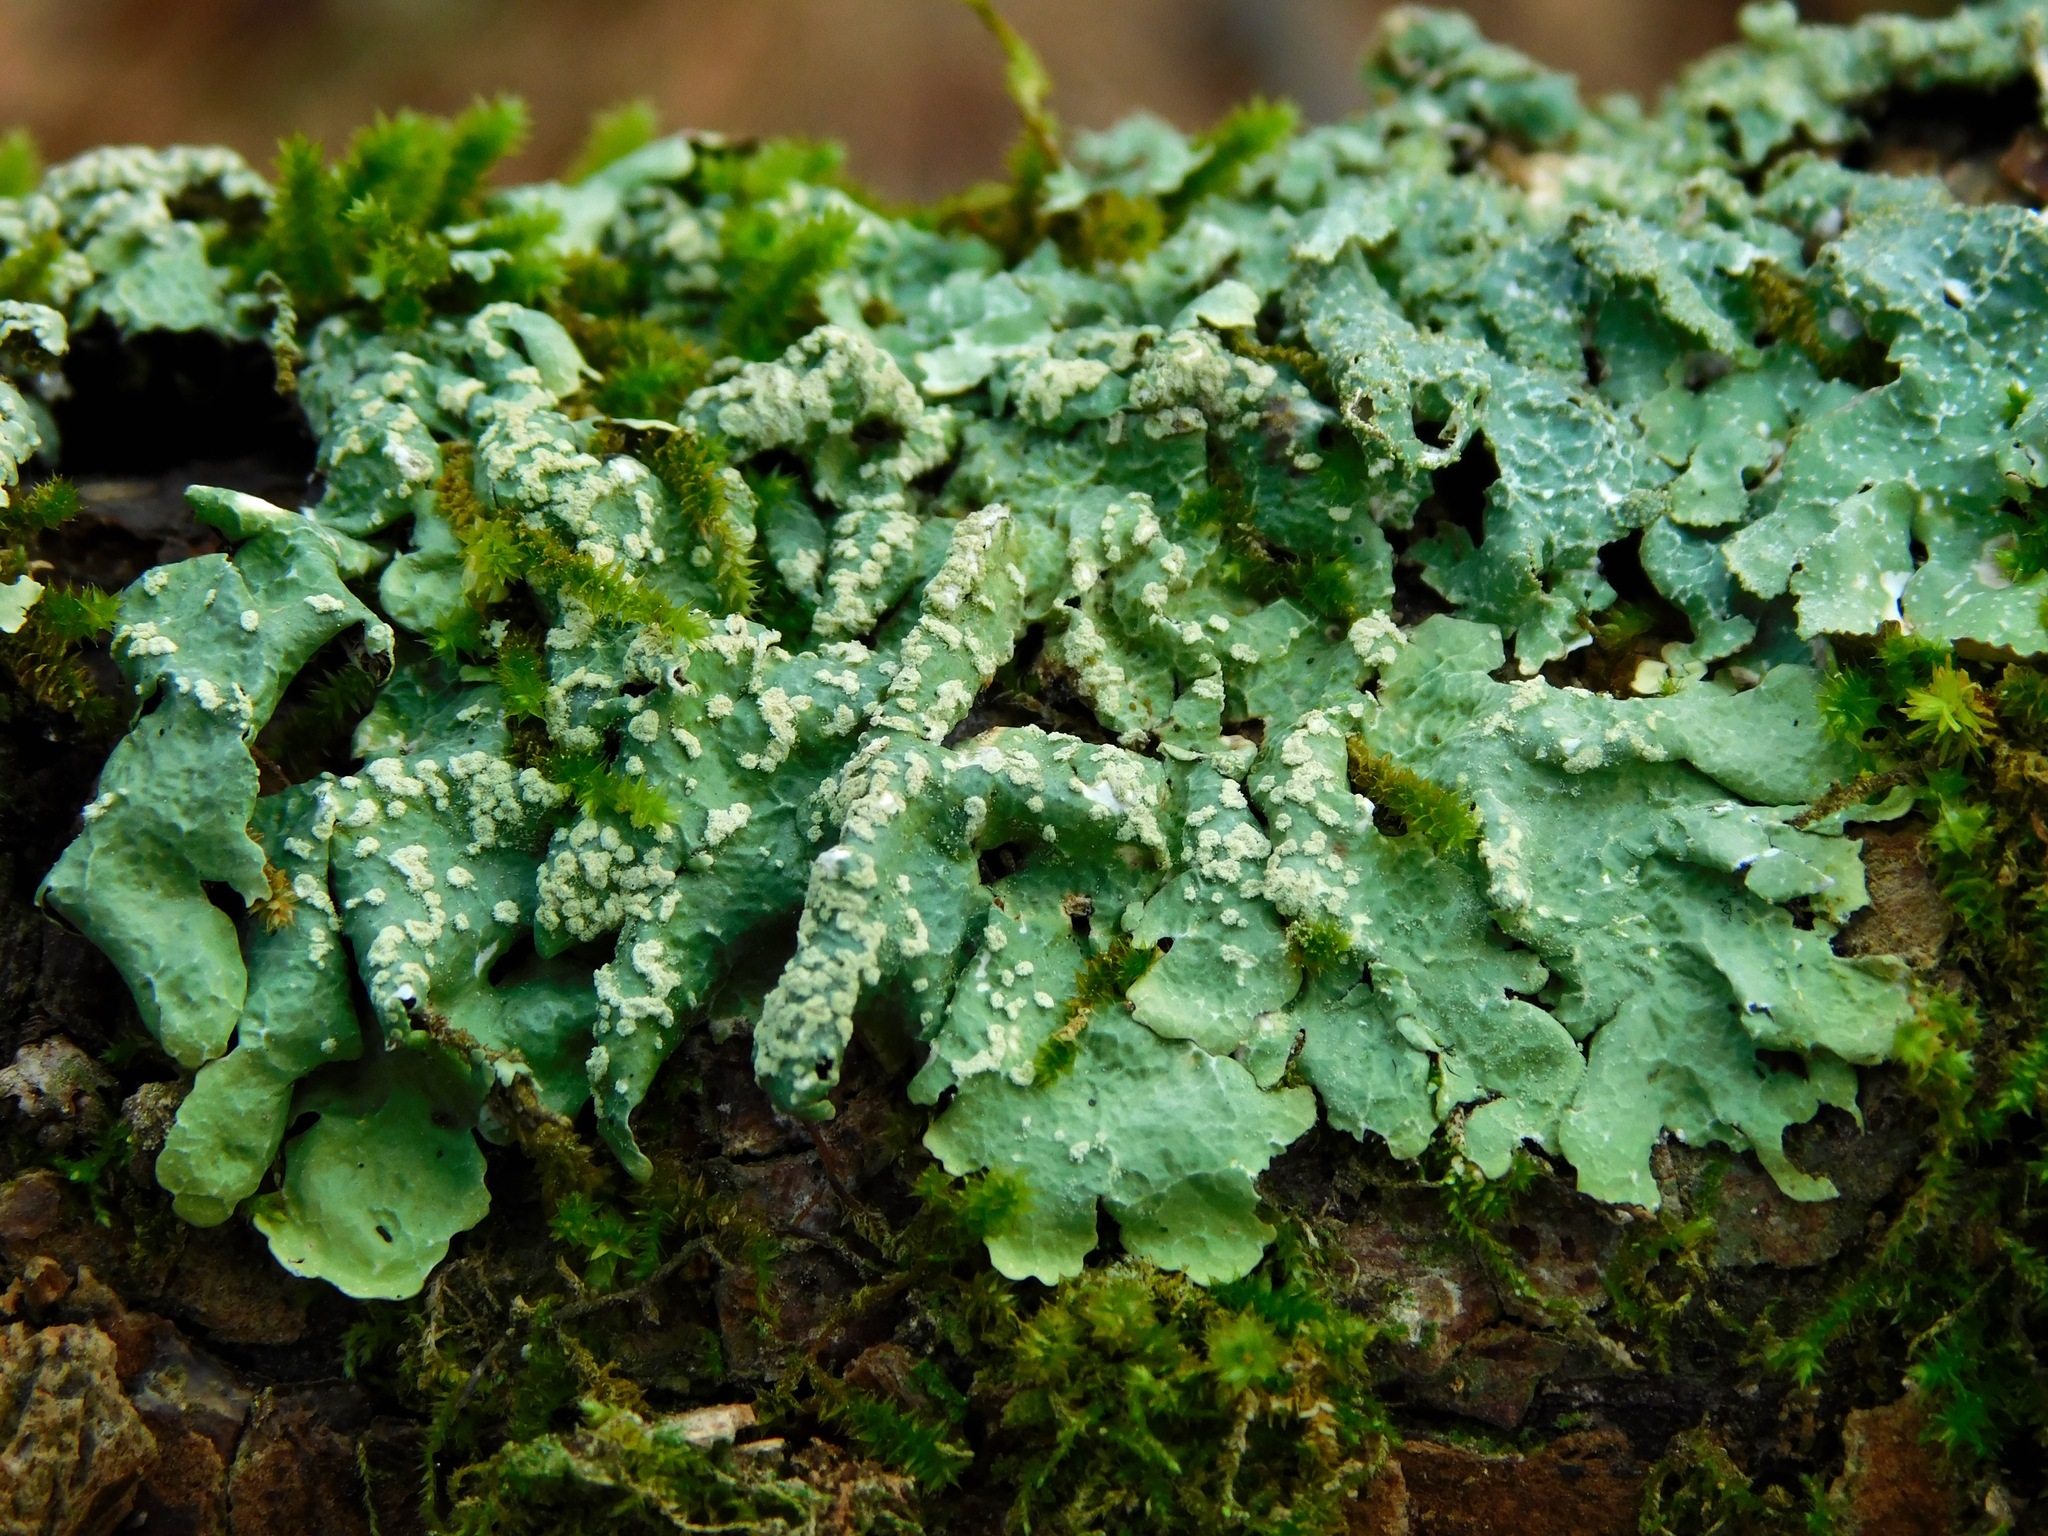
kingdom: Fungi
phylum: Ascomycota
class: Lecanoromycetes
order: Lecanorales
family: Parmeliaceae
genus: Crespoa
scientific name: Crespoa crozalsiana
